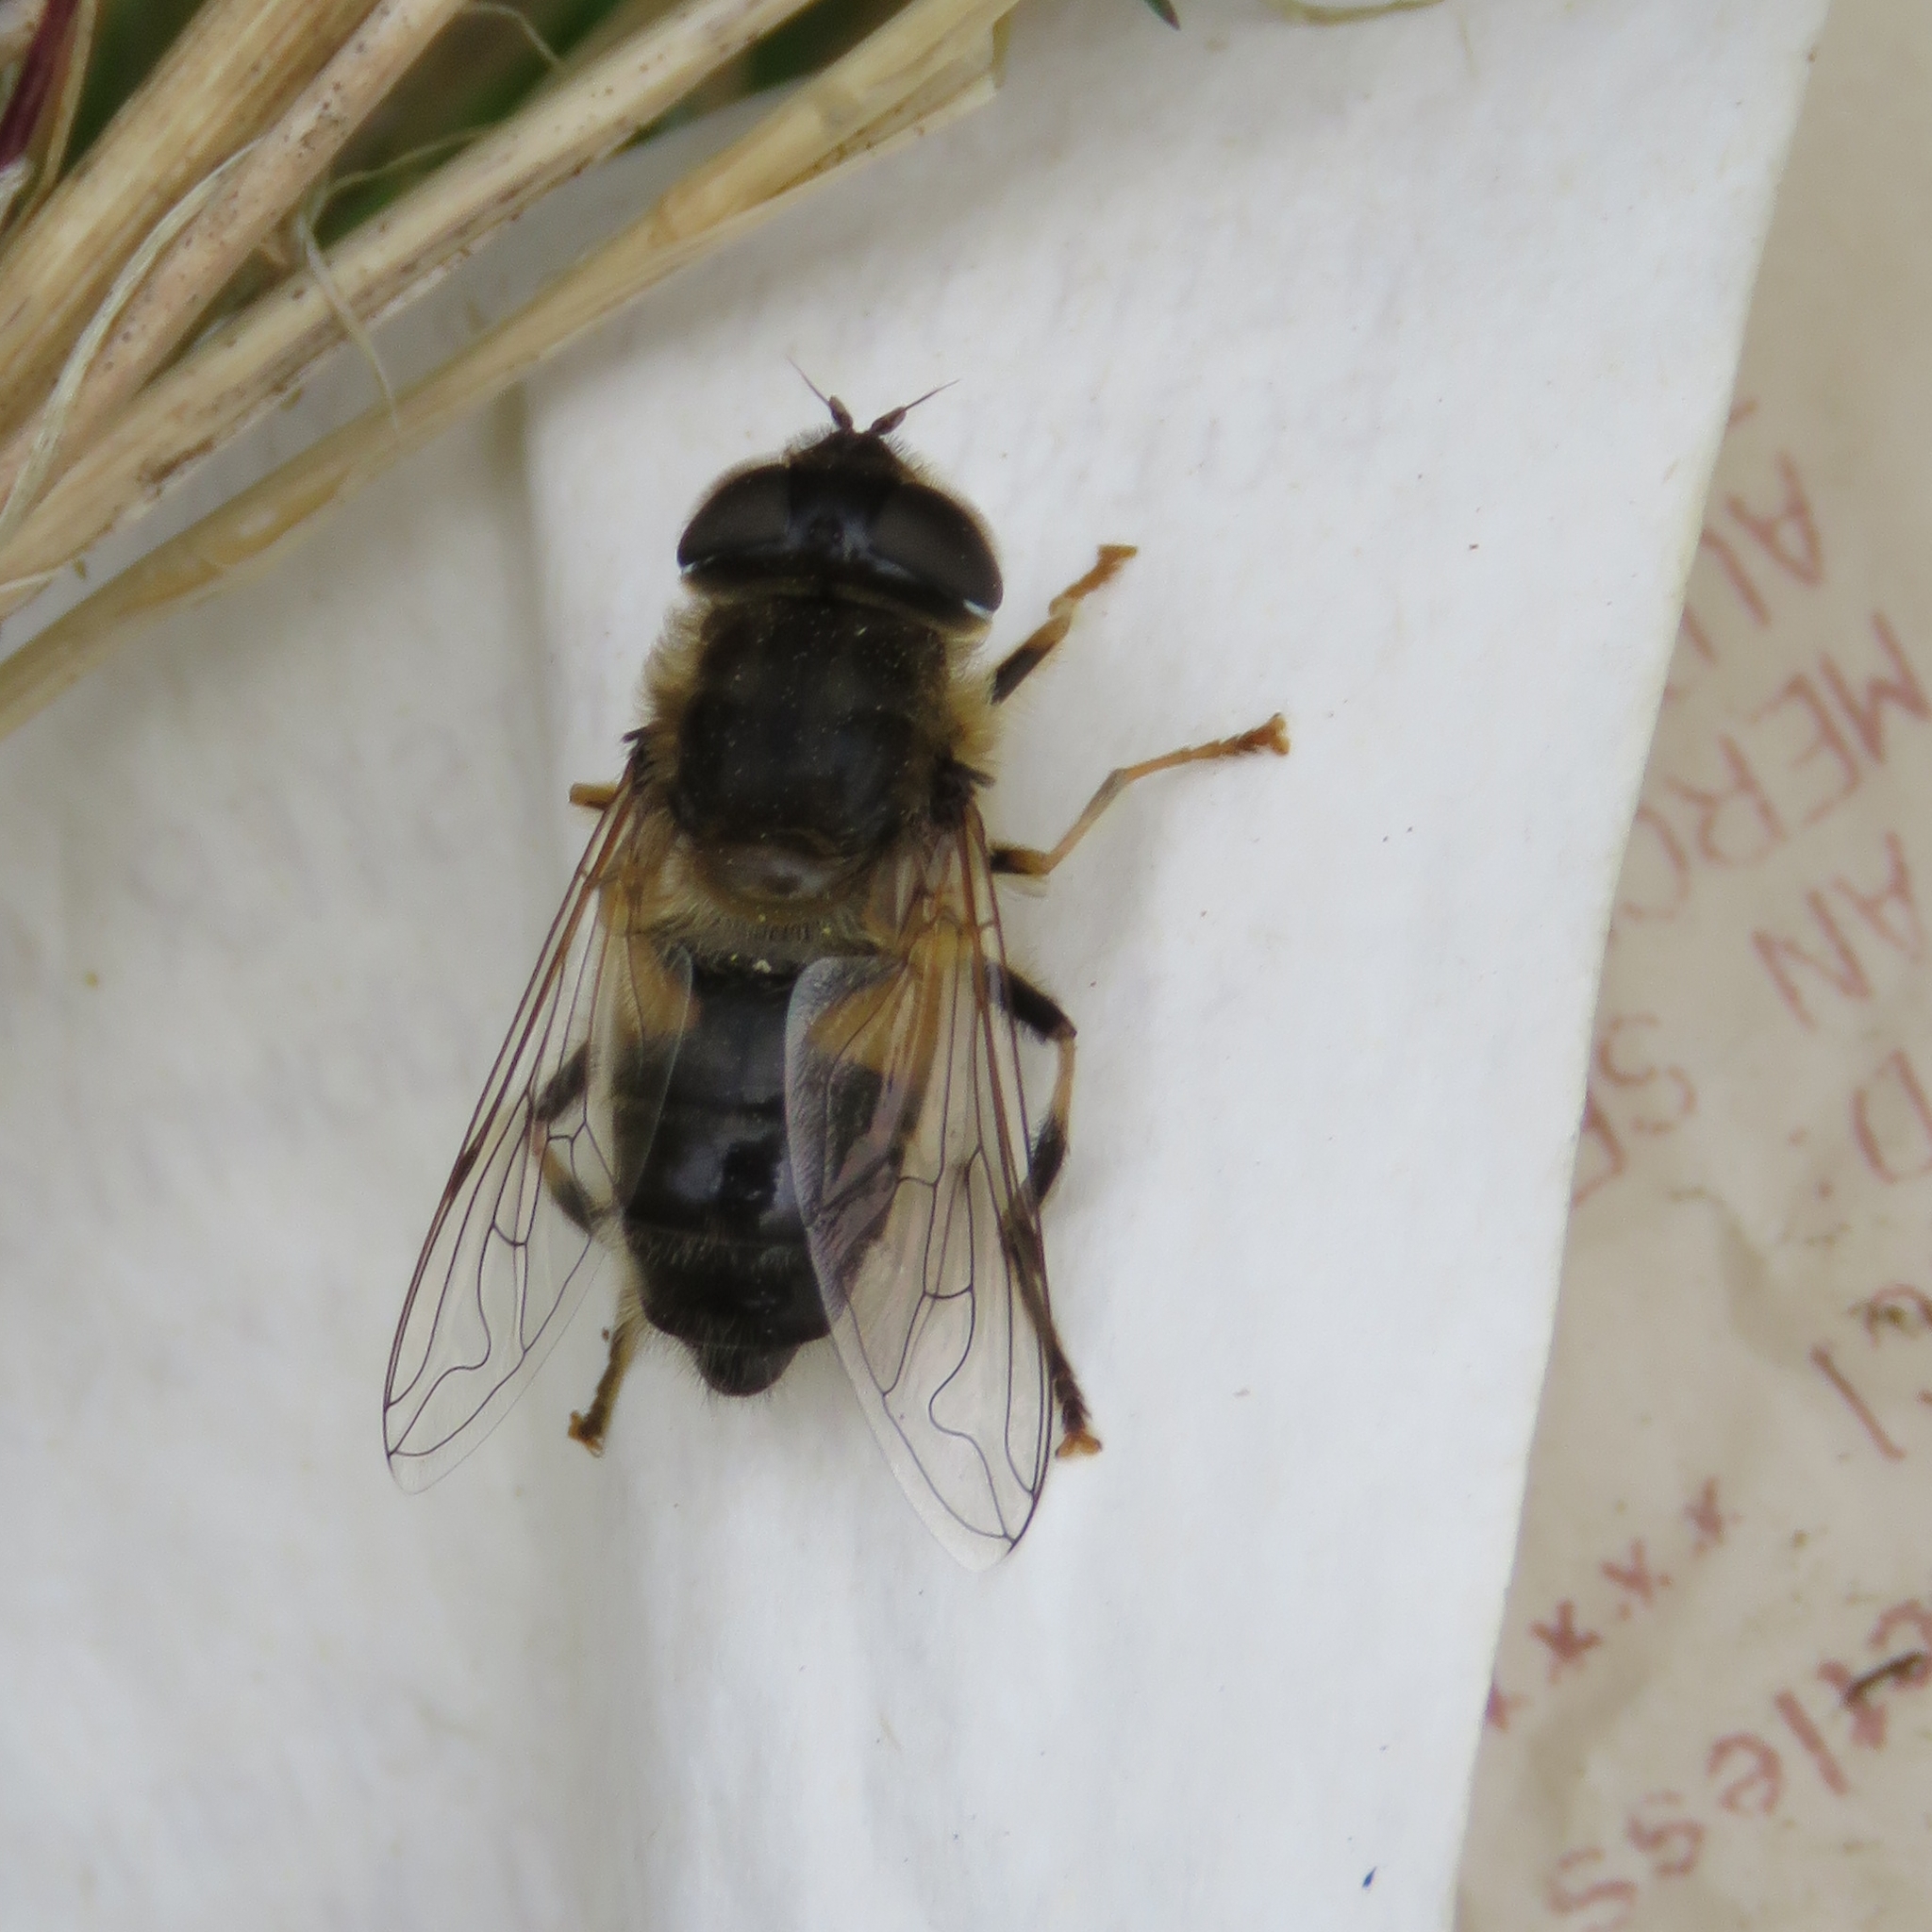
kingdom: Animalia
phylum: Arthropoda
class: Insecta
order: Diptera
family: Syrphidae
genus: Eristalis
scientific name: Eristalis pertinax
